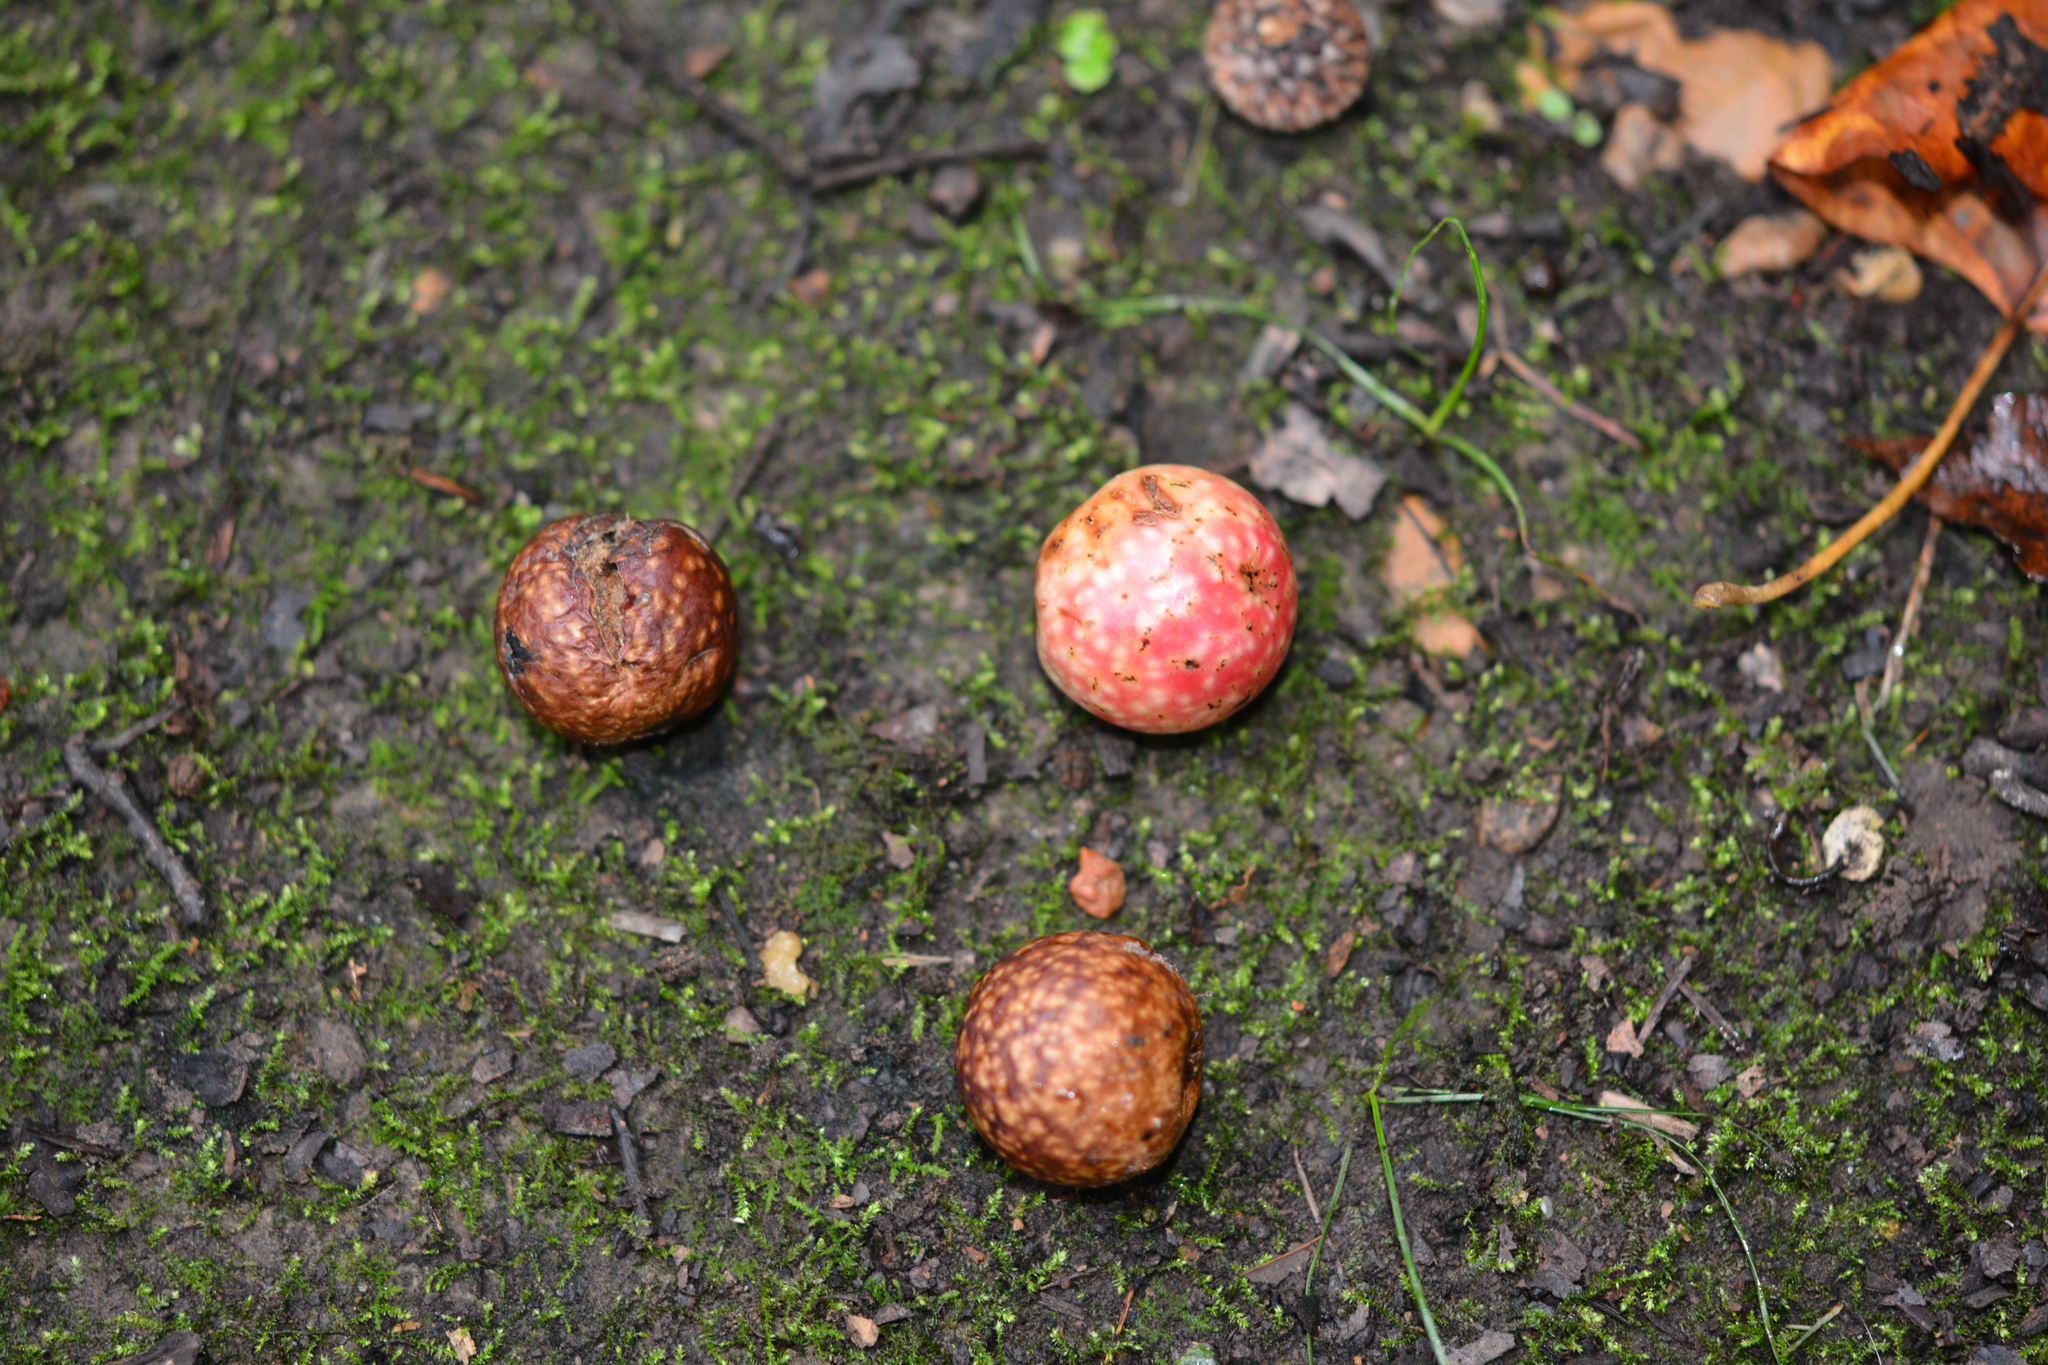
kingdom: Animalia
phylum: Arthropoda
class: Insecta
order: Hymenoptera
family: Cynipidae
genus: Amphibolips
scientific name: Amphibolips
